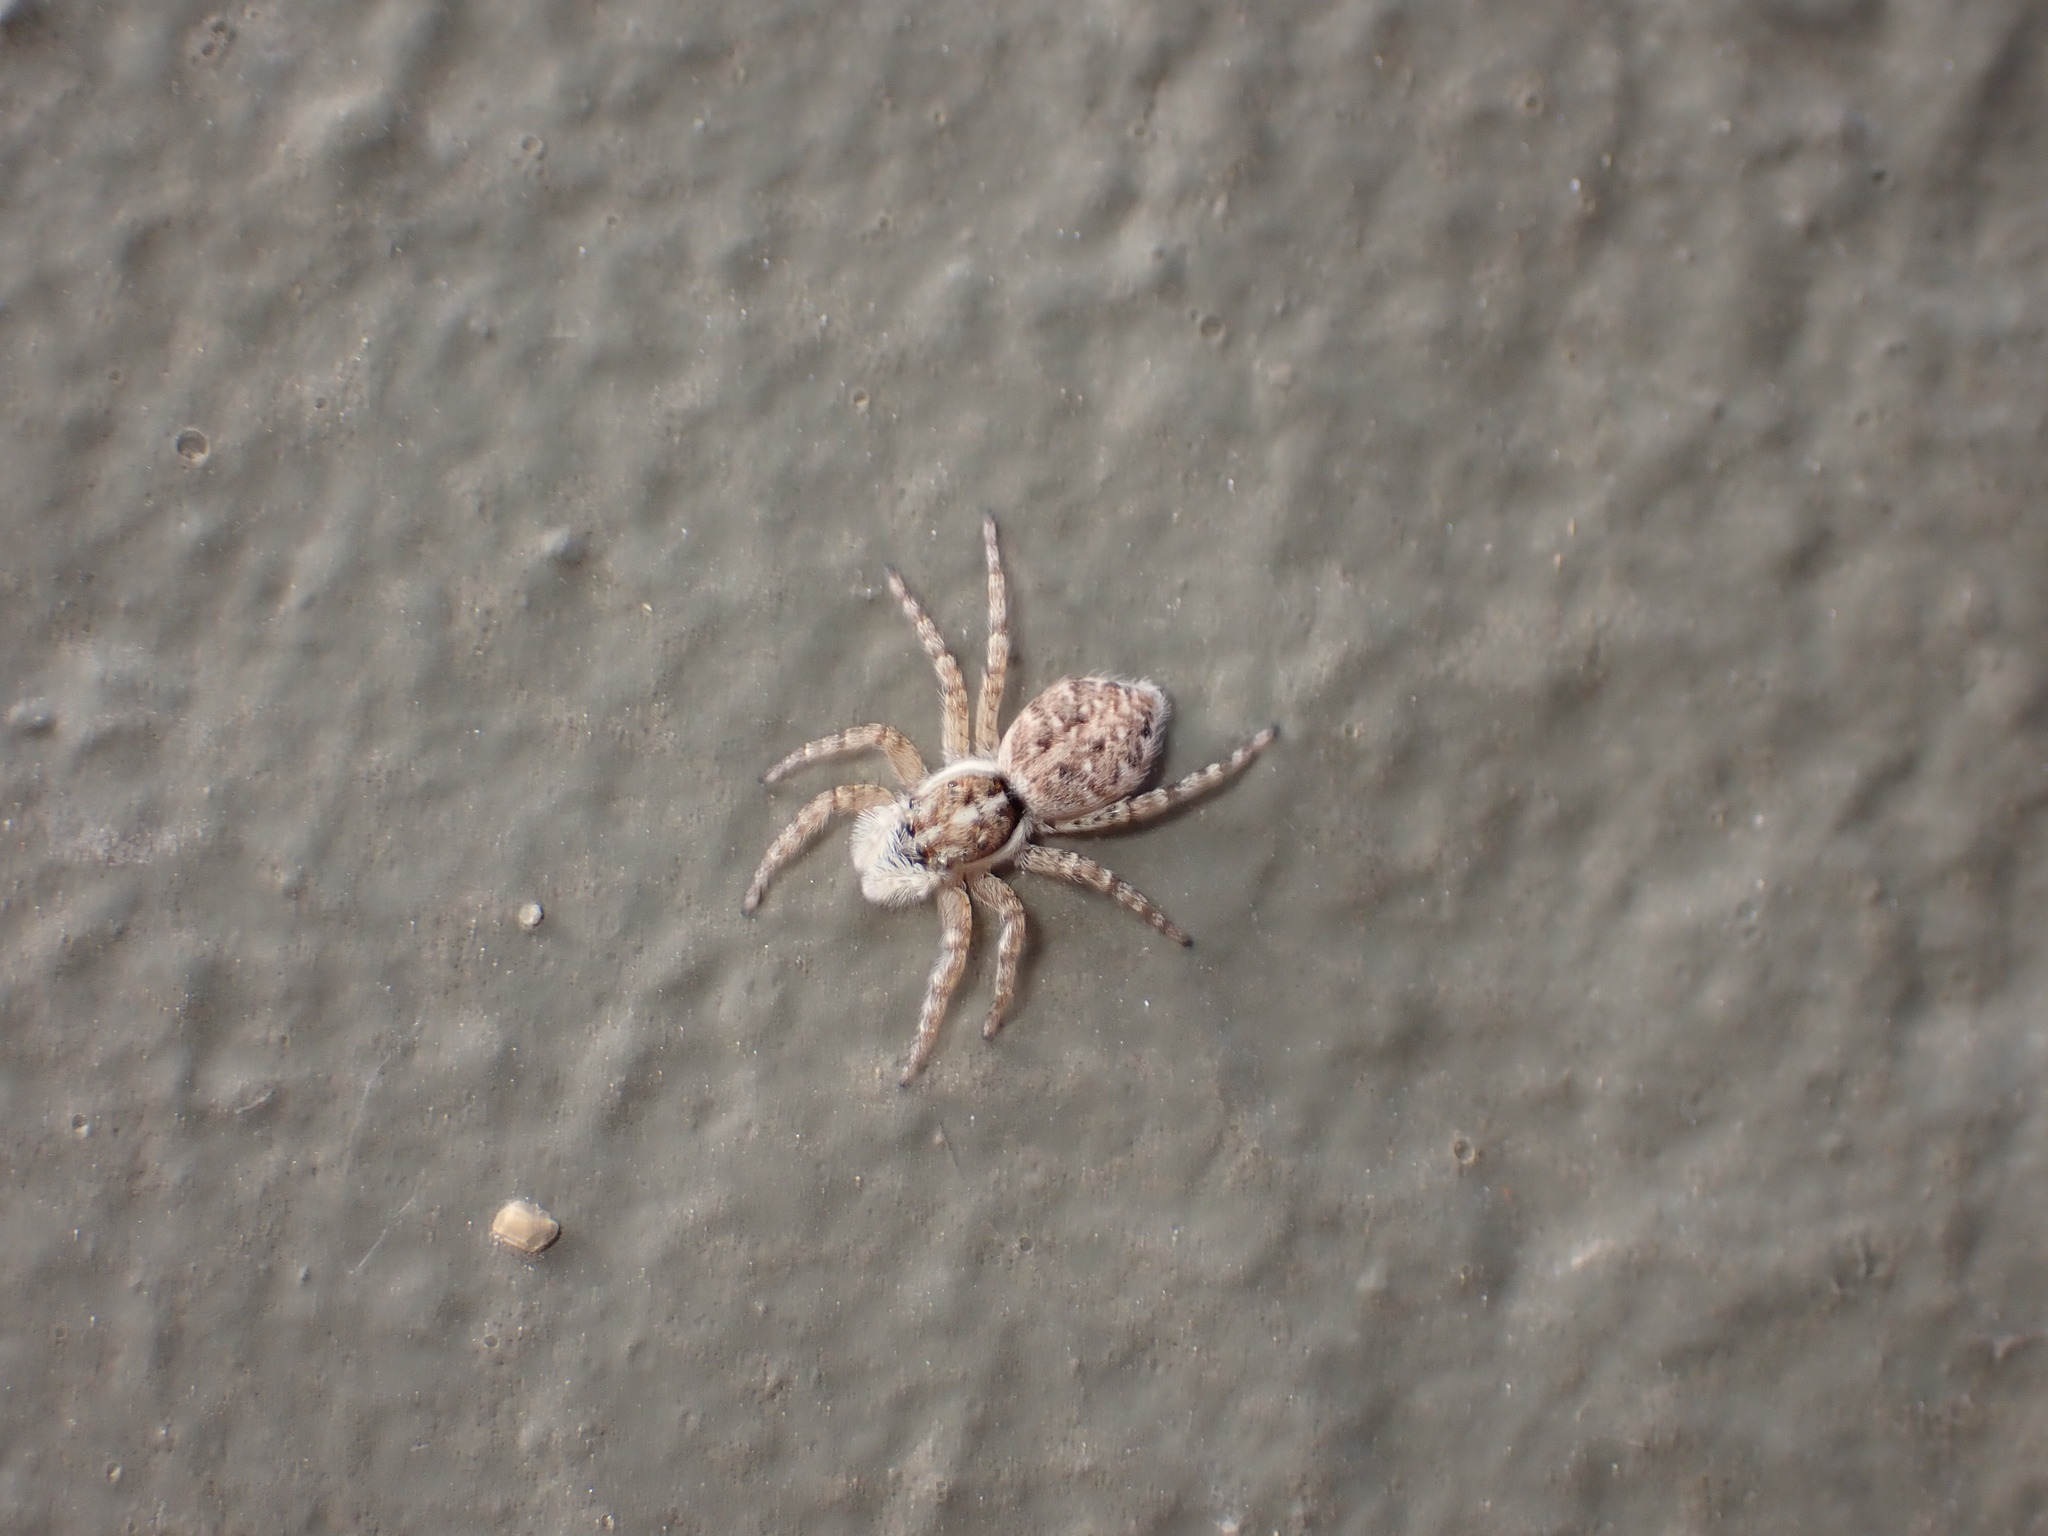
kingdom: Animalia
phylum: Arthropoda
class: Arachnida
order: Araneae
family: Salticidae
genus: Menemerus
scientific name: Menemerus semilimbatus
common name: Jumping spider
